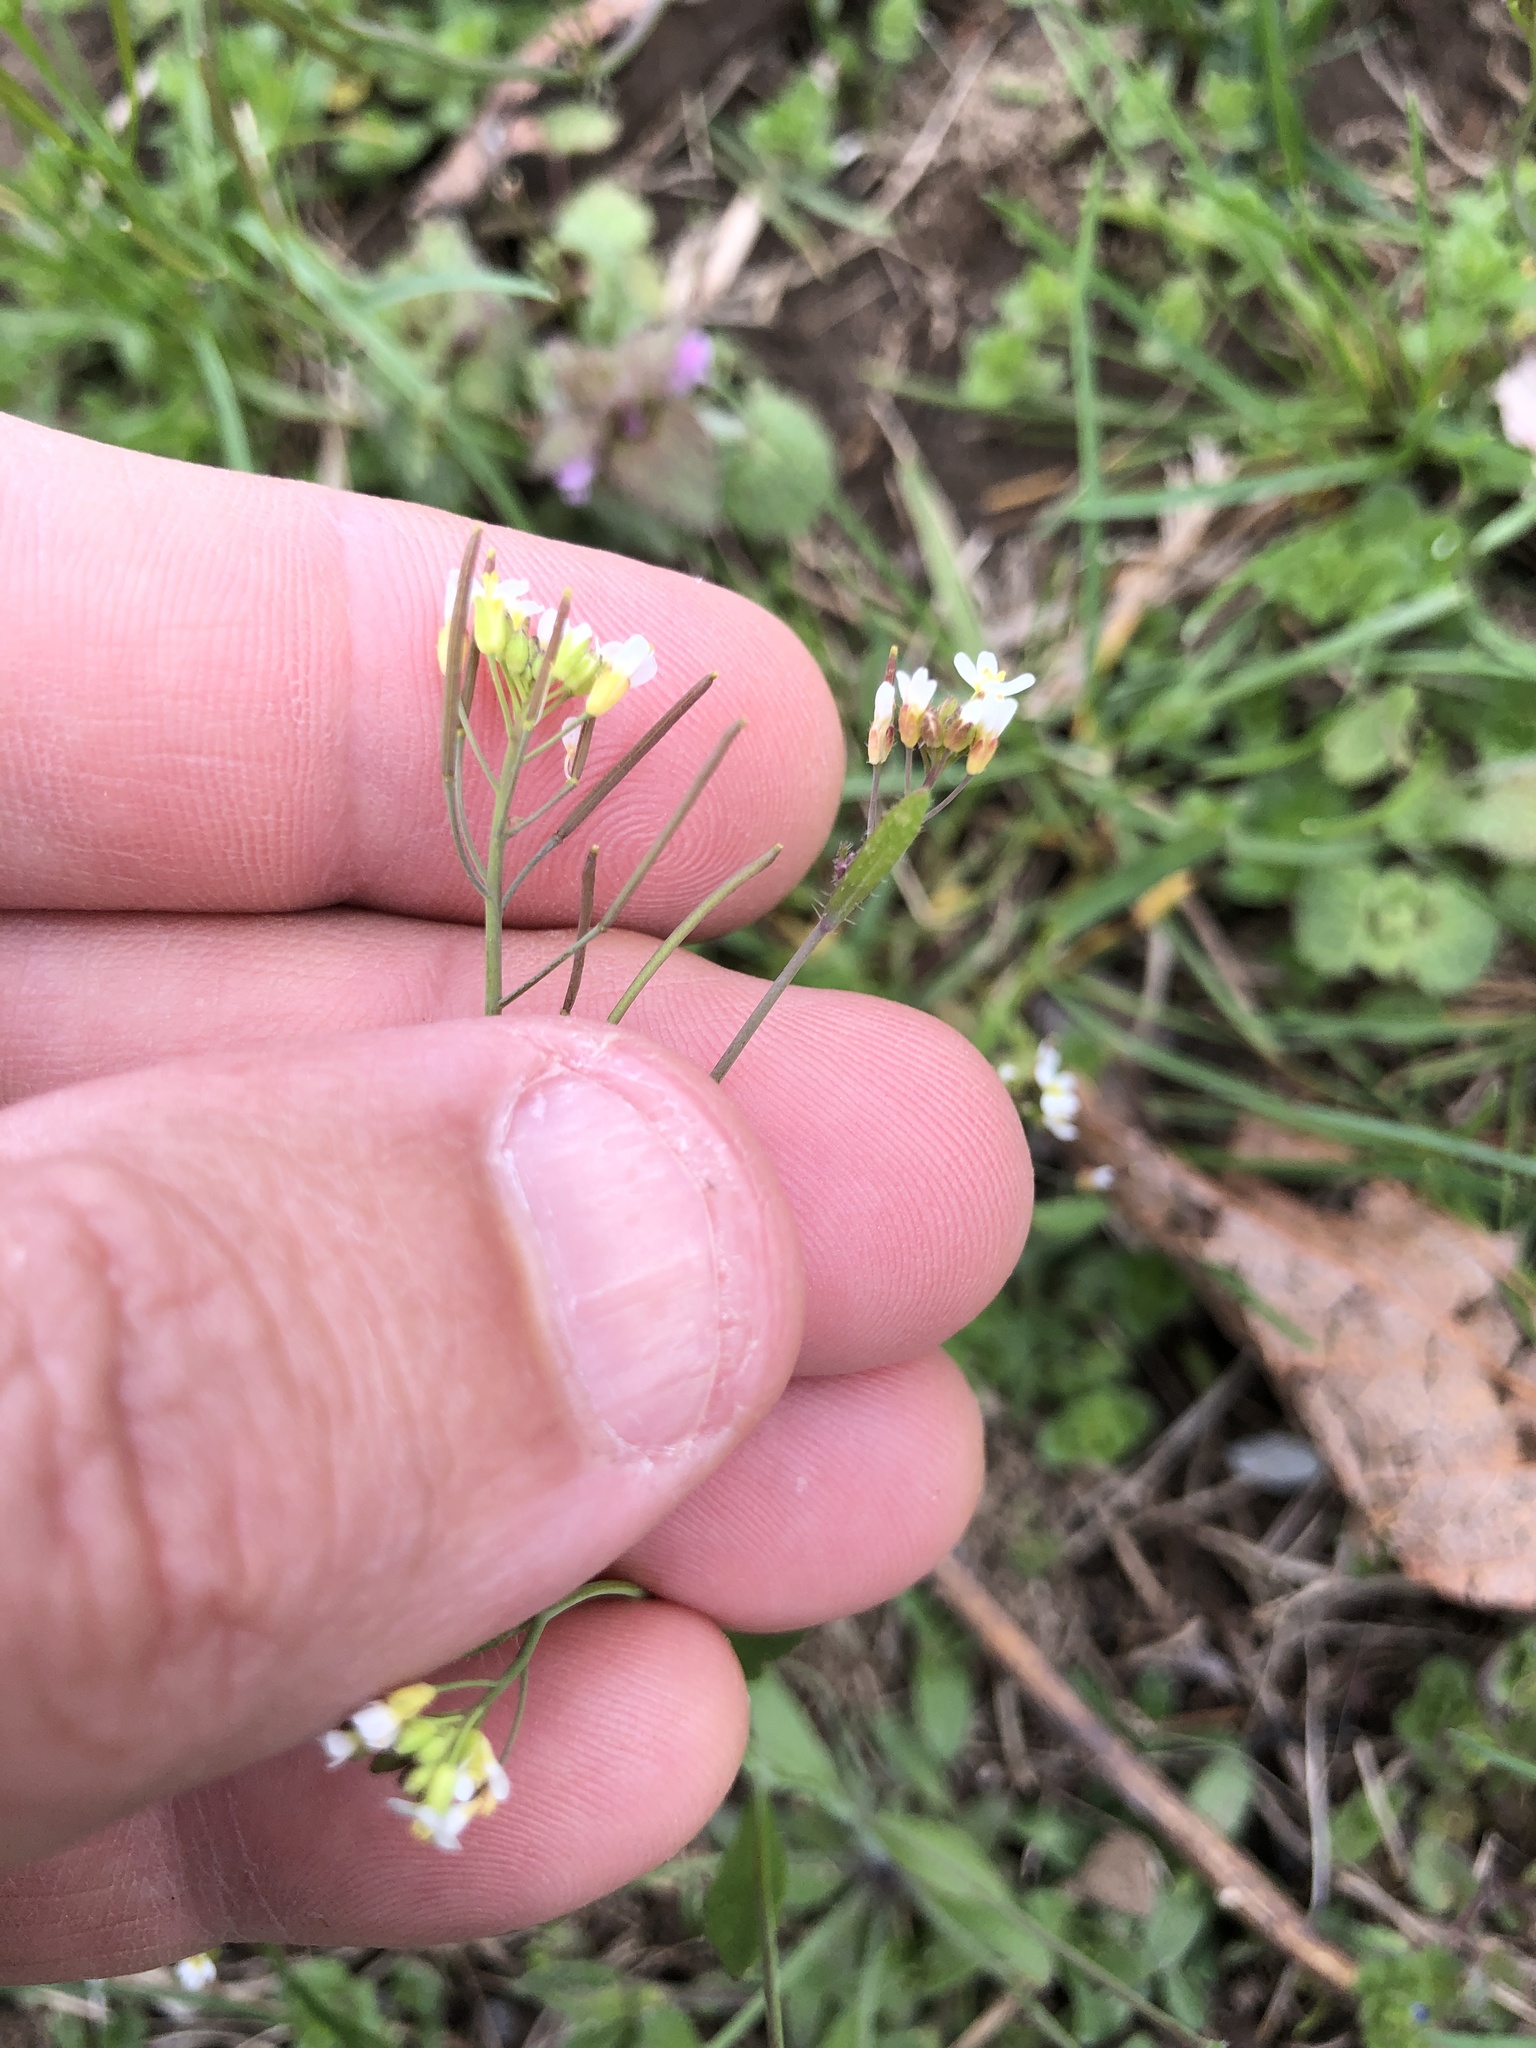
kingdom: Plantae
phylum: Tracheophyta
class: Magnoliopsida
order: Brassicales
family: Brassicaceae
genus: Arabidopsis
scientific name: Arabidopsis thaliana
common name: Thale cress
